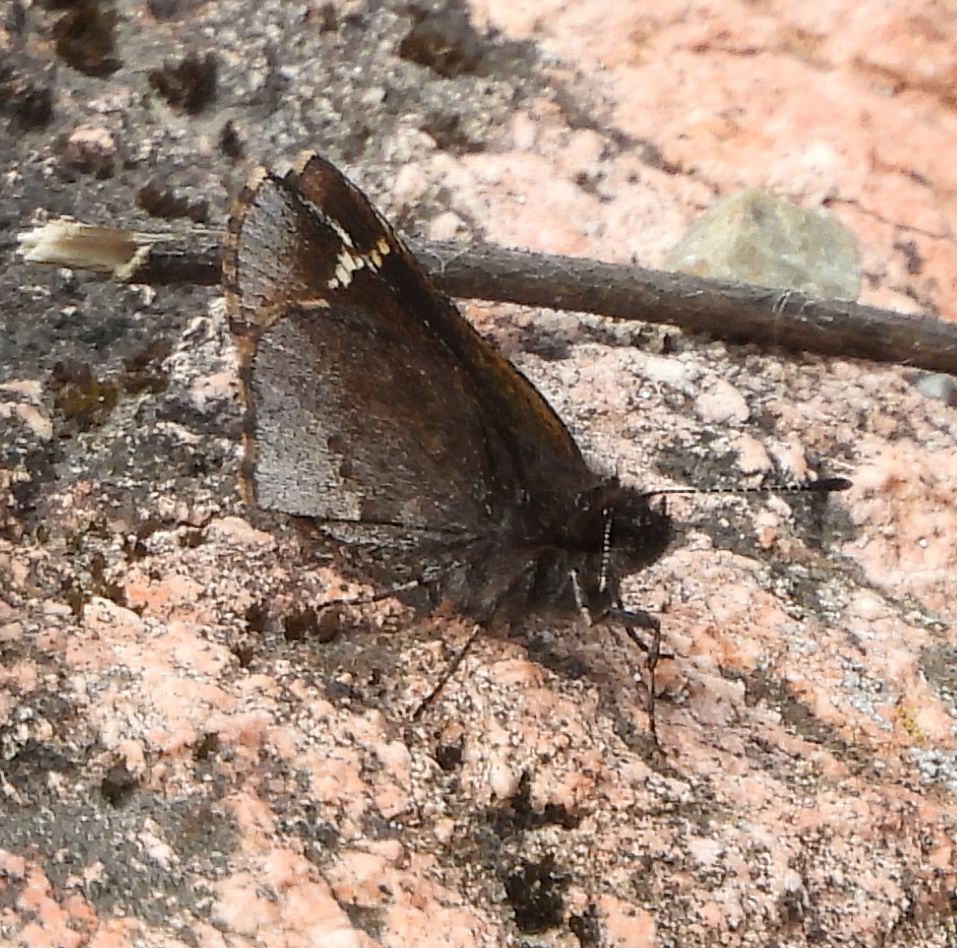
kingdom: Animalia
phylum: Arthropoda
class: Insecta
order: Lepidoptera
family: Hesperiidae
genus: Mastor
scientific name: Mastor vialis
